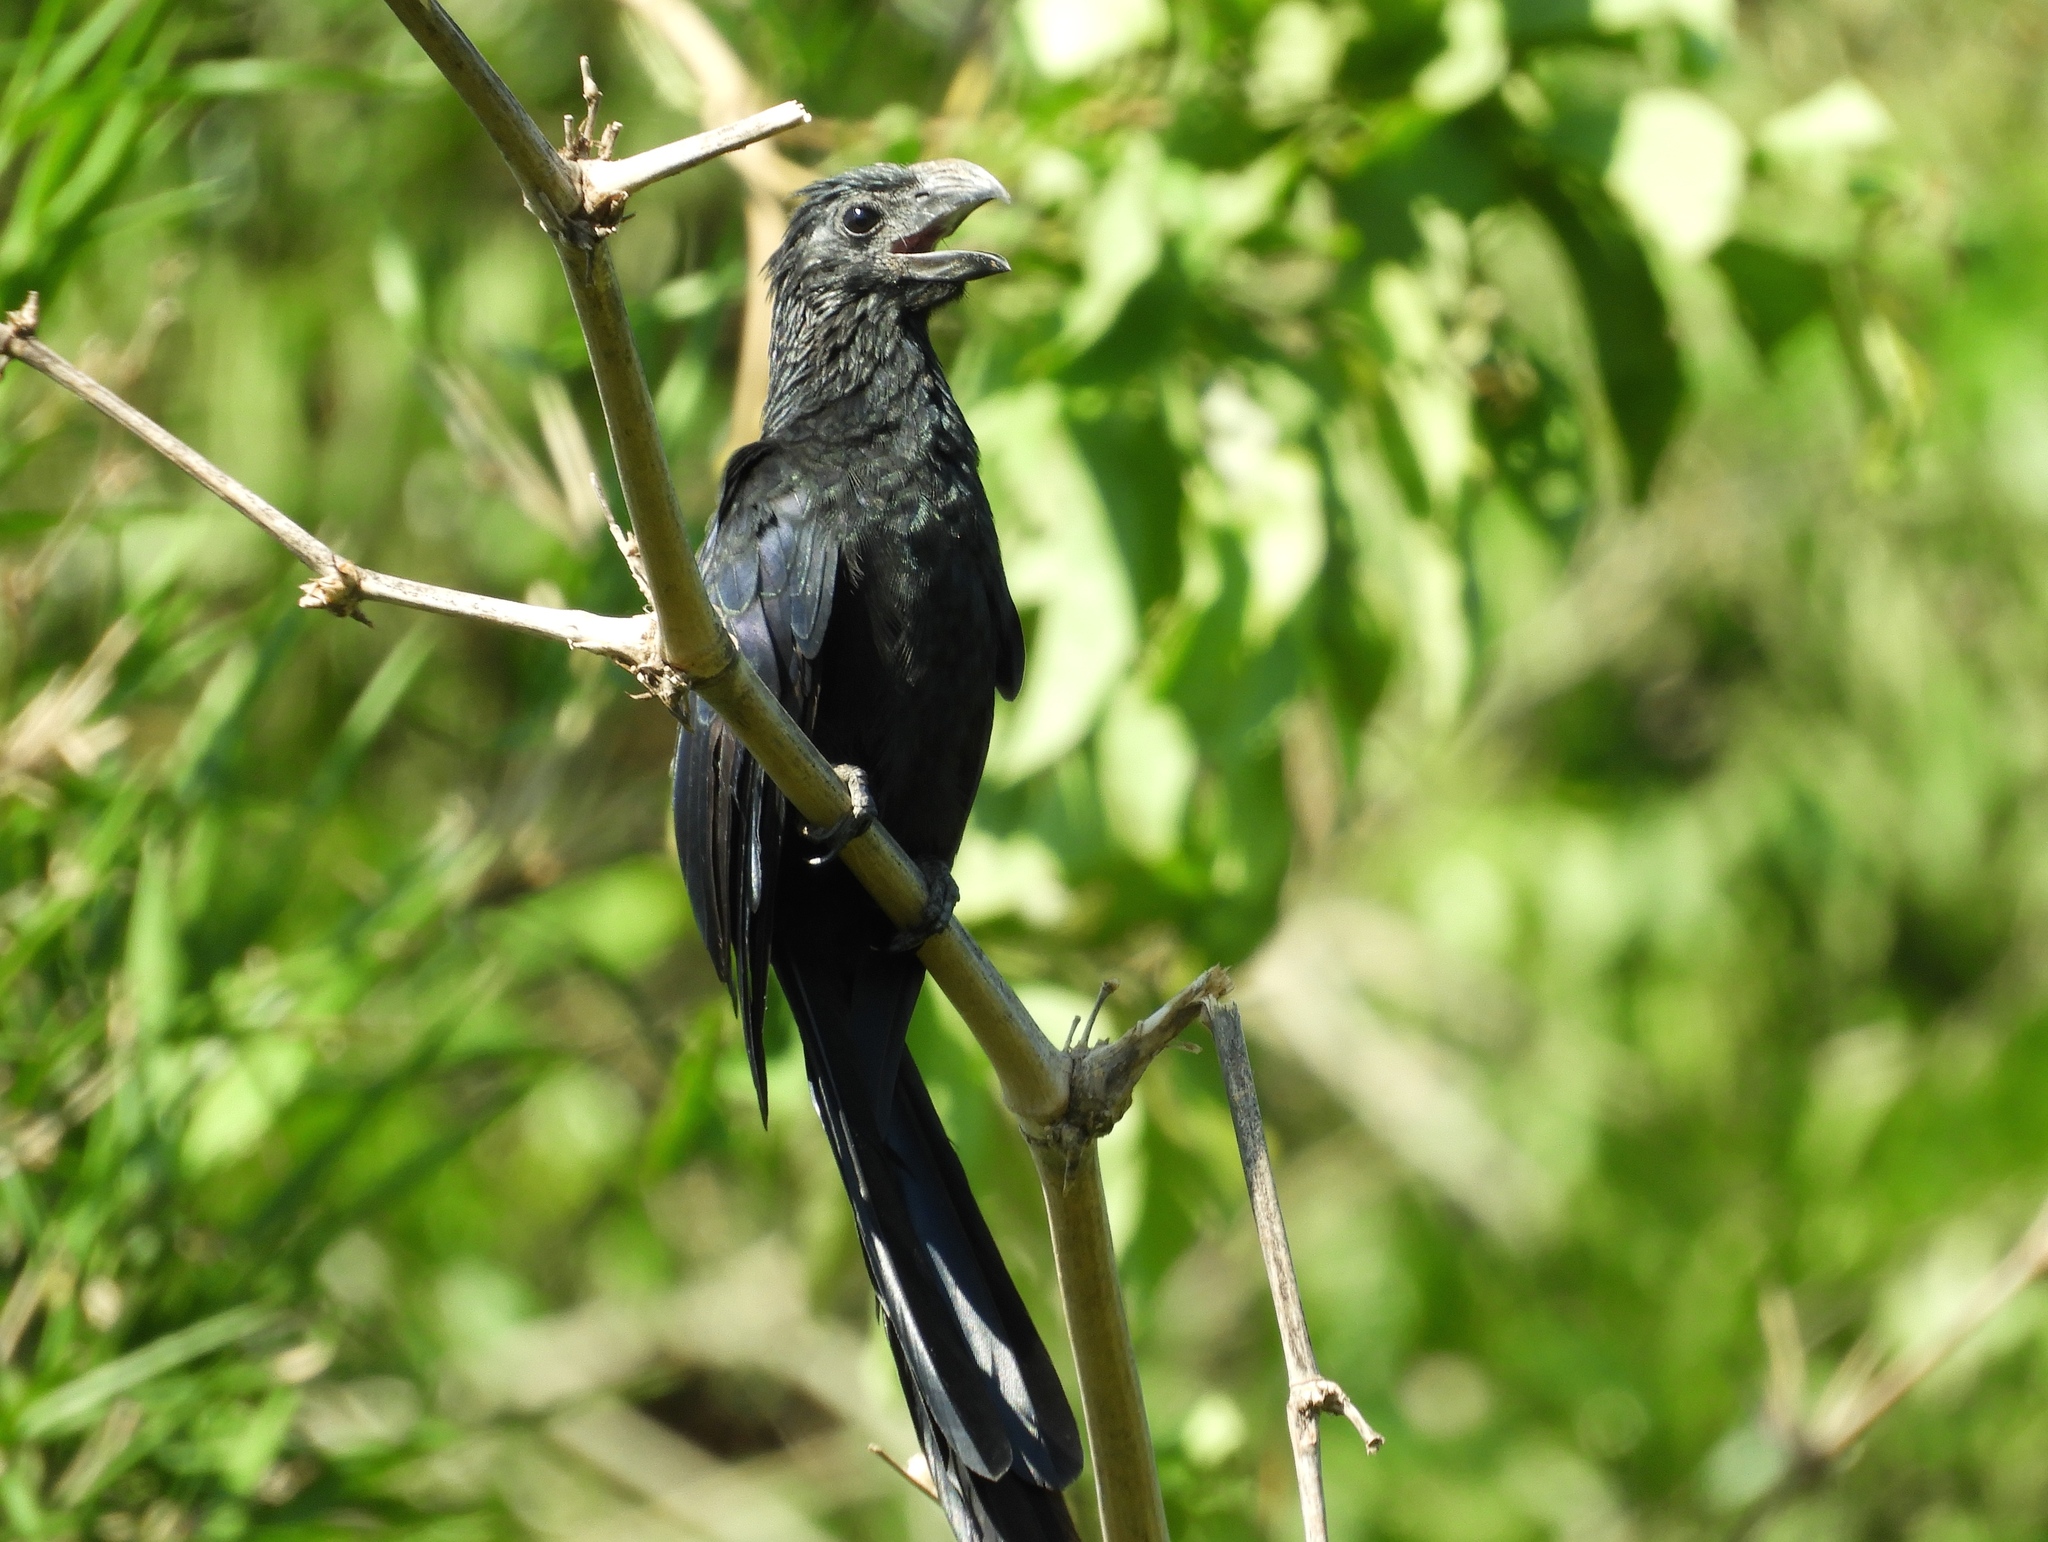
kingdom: Animalia
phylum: Chordata
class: Aves
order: Cuculiformes
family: Cuculidae
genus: Crotophaga
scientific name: Crotophaga sulcirostris
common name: Groove-billed ani
